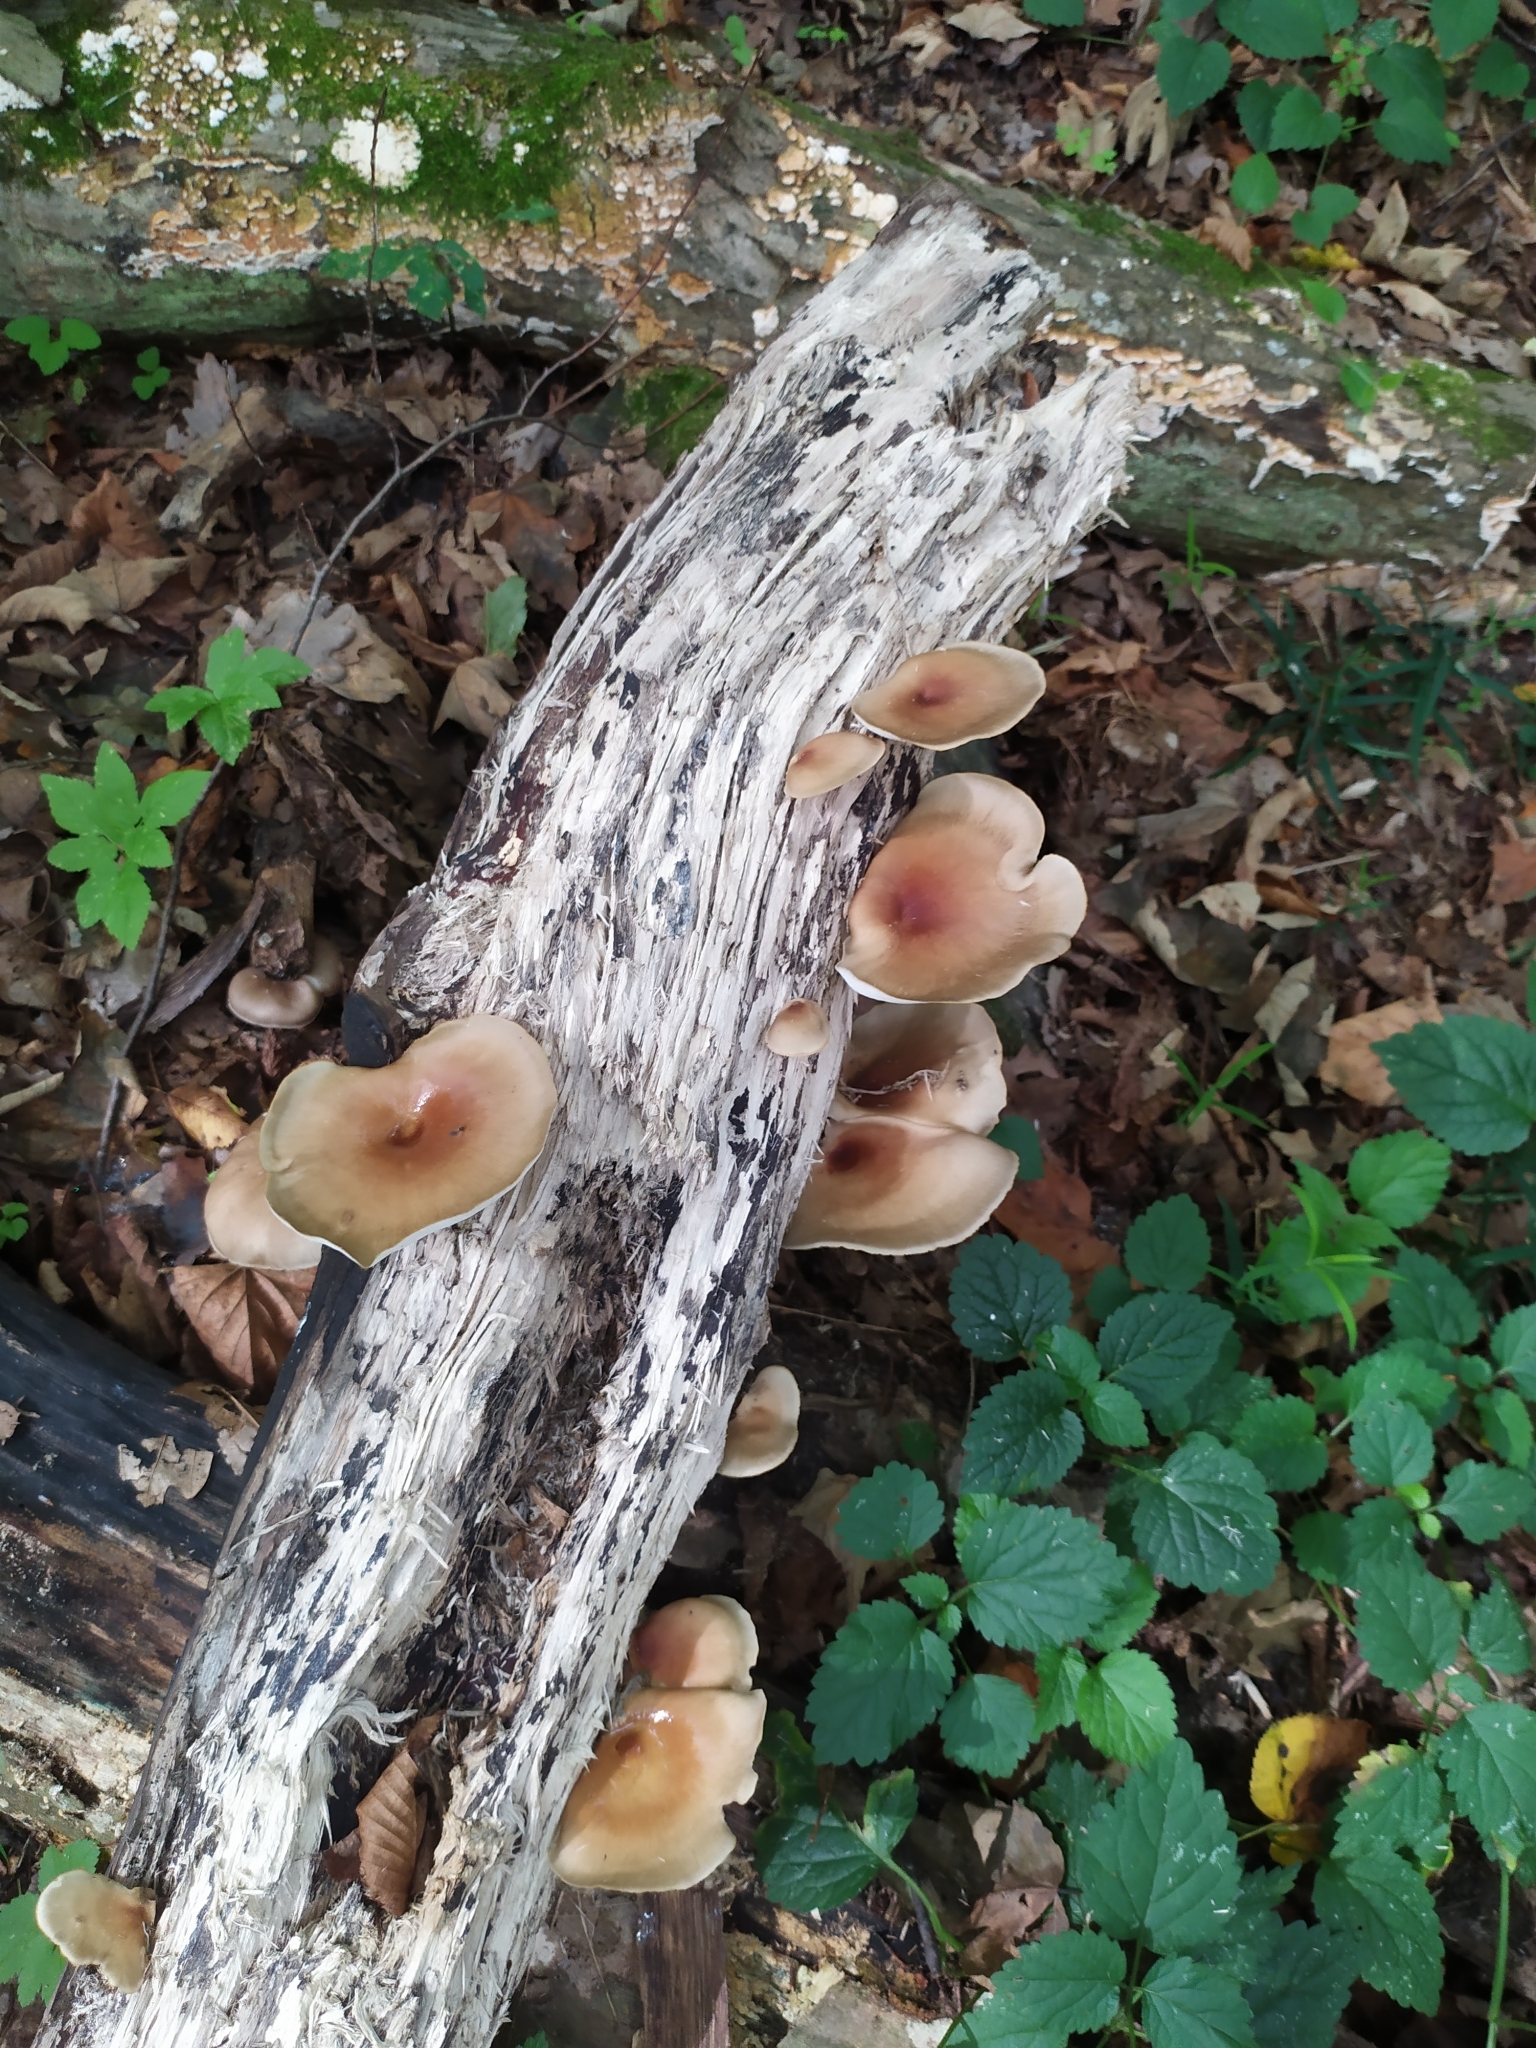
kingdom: Fungi
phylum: Basidiomycota
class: Agaricomycetes
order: Polyporales
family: Polyporaceae
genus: Picipes
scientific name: Picipes badius
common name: Bay polypore
